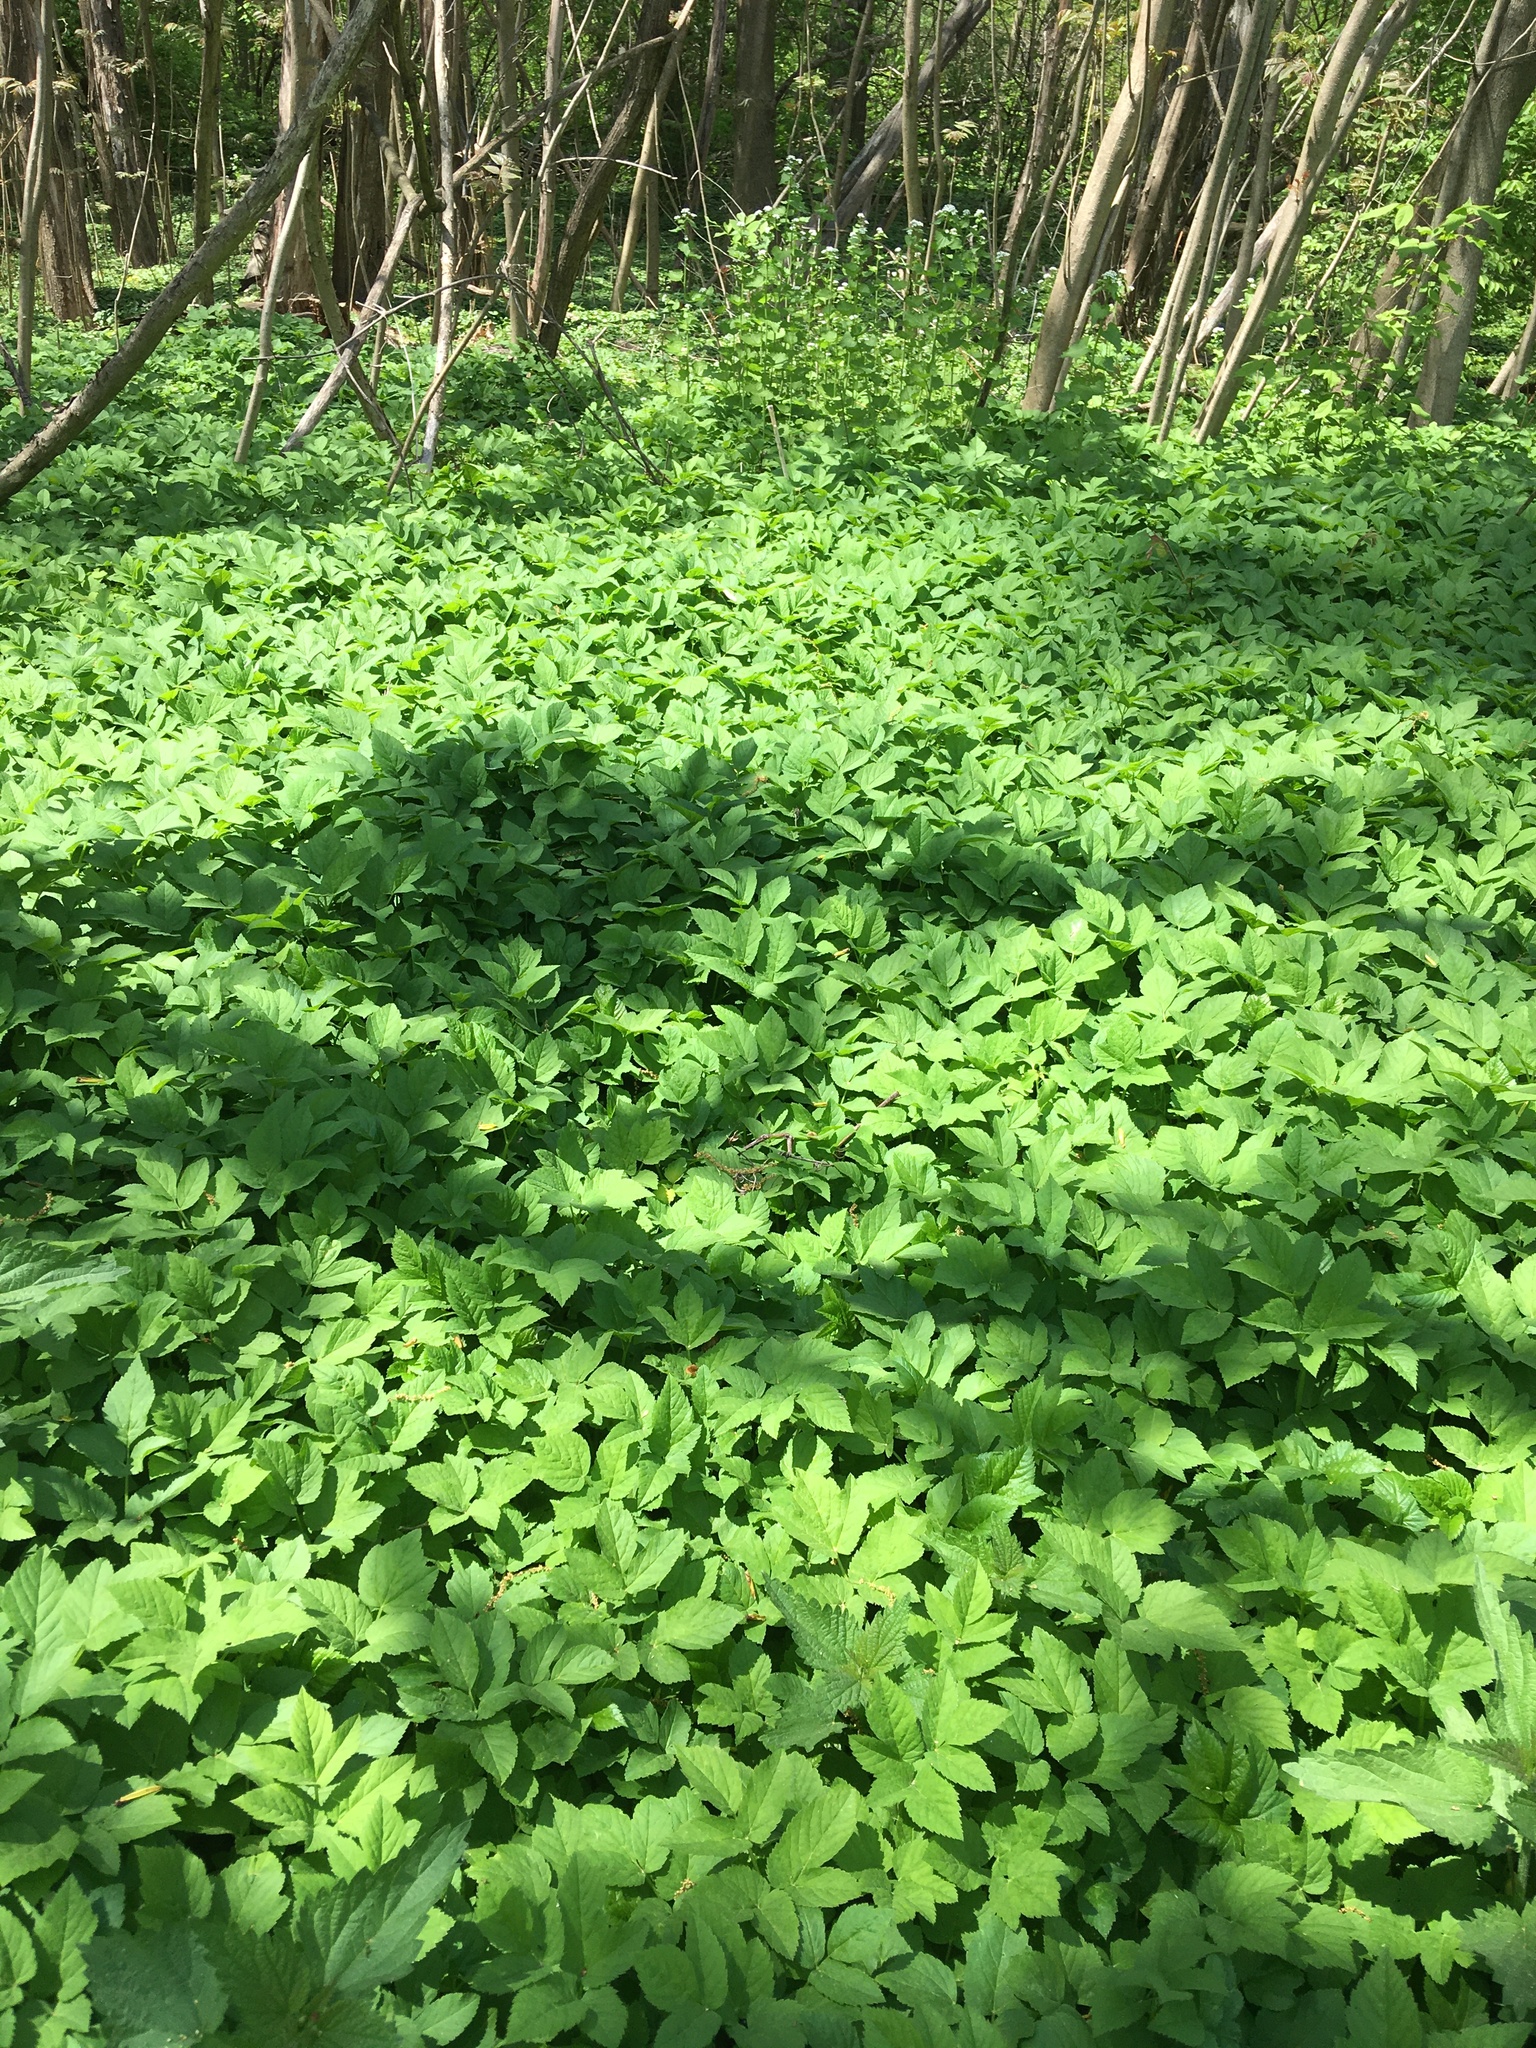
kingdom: Plantae
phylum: Tracheophyta
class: Magnoliopsida
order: Apiales
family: Apiaceae
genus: Aegopodium
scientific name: Aegopodium podagraria
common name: Ground-elder
